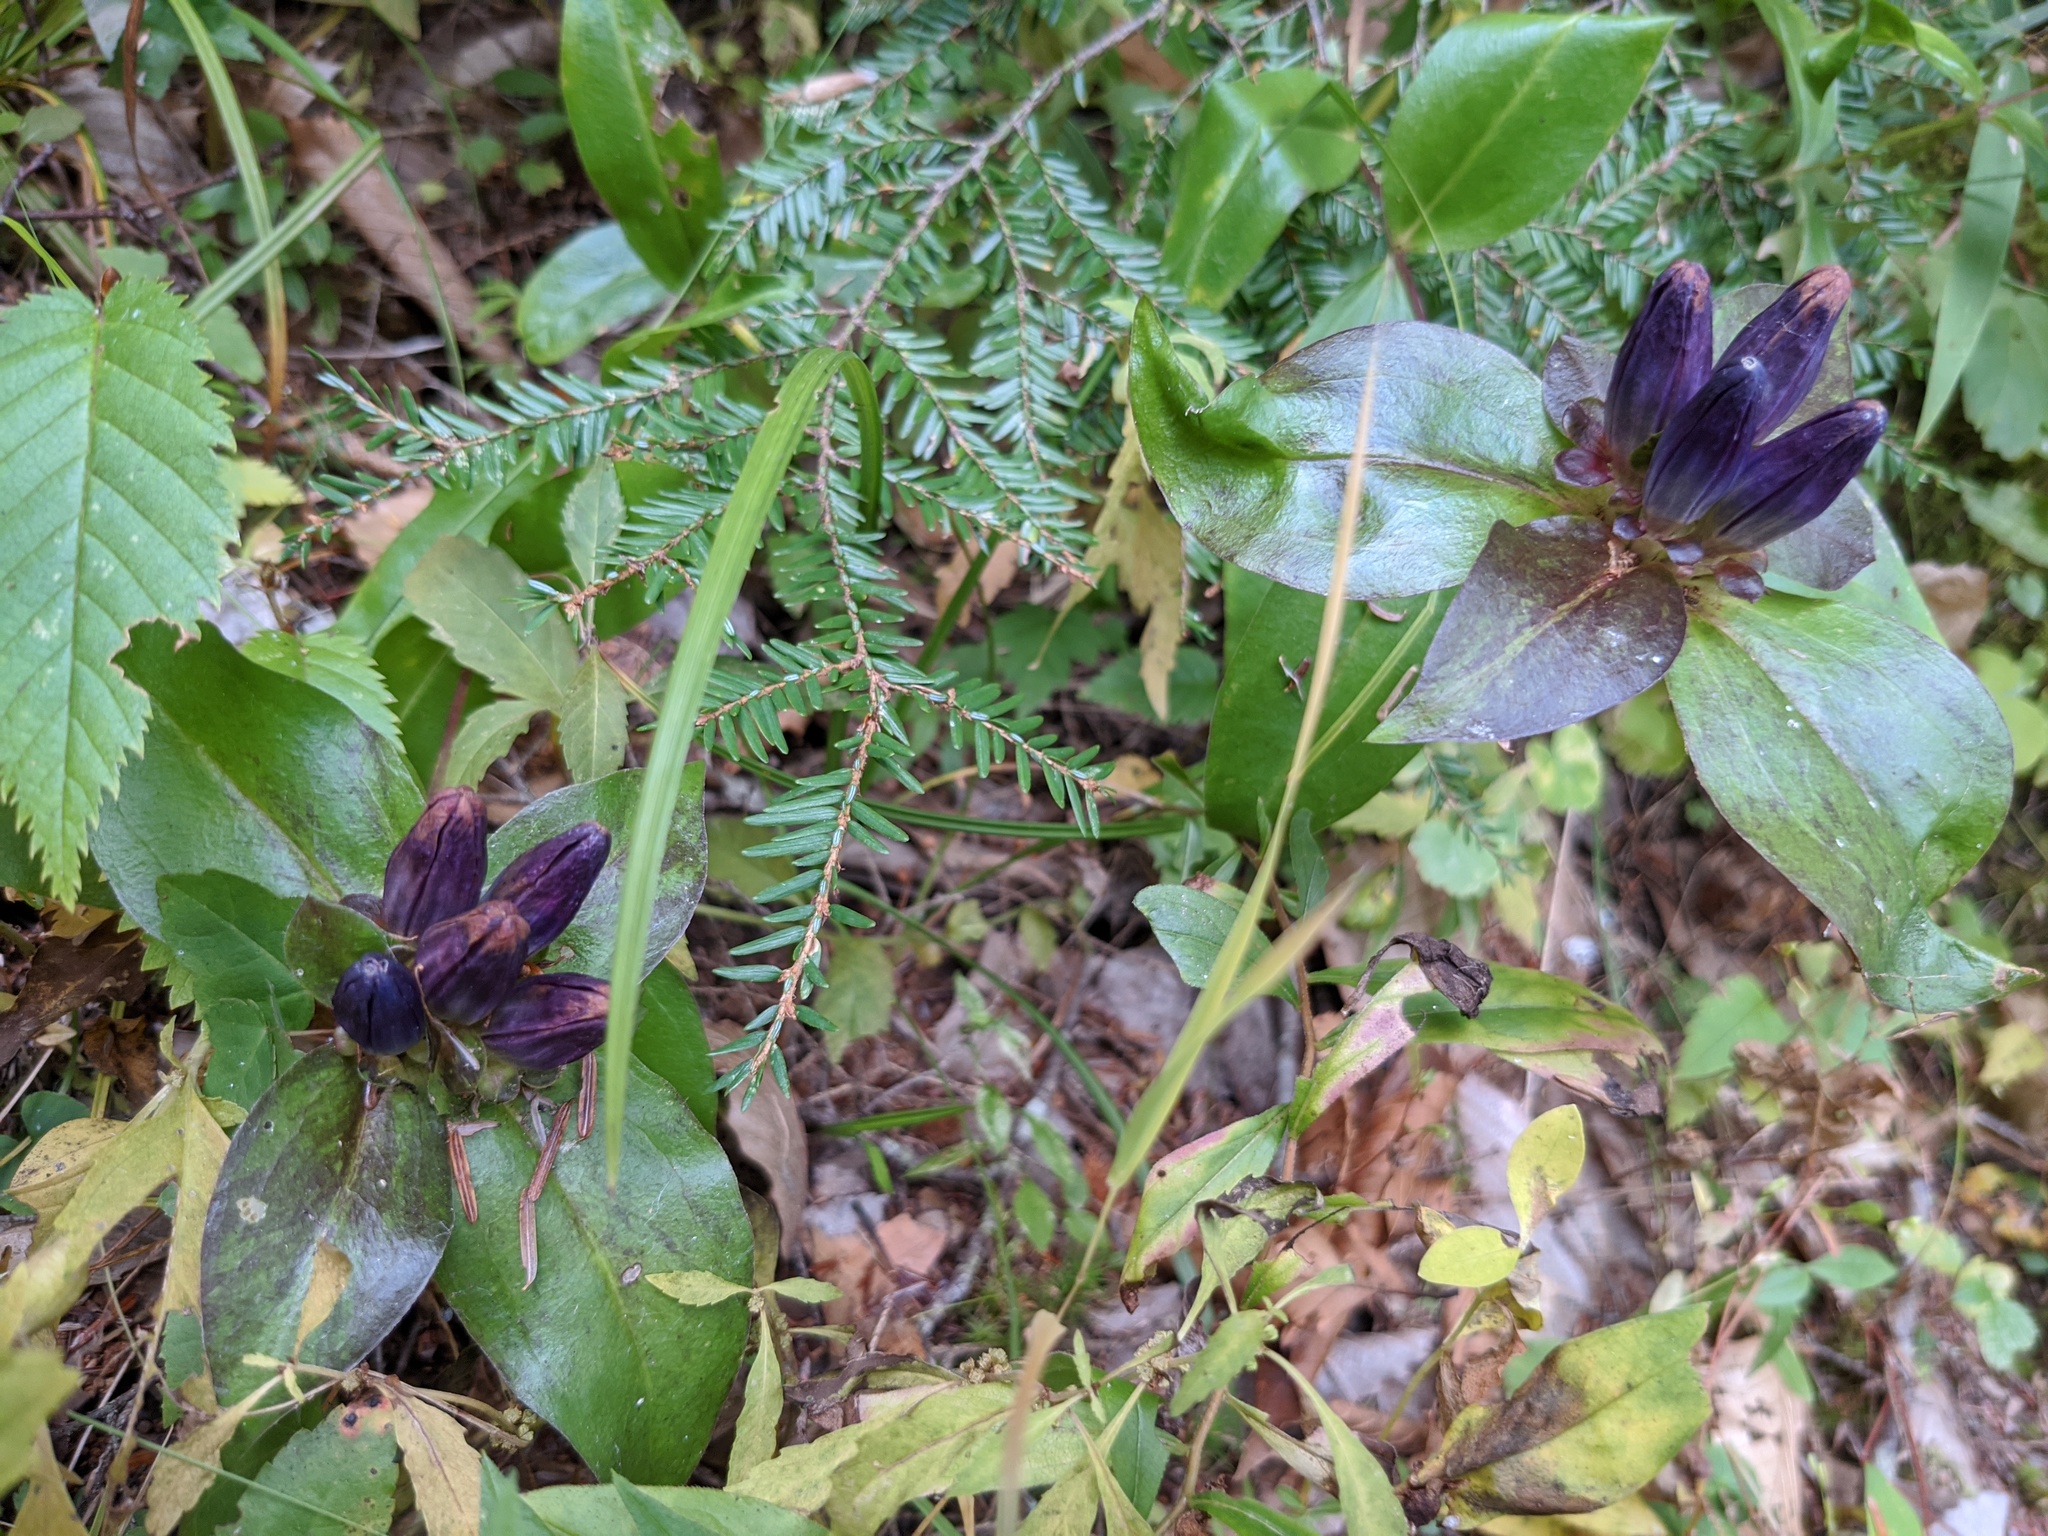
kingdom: Plantae
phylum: Tracheophyta
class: Magnoliopsida
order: Gentianales
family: Gentianaceae
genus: Gentiana
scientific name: Gentiana clausa
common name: Blind gentian
